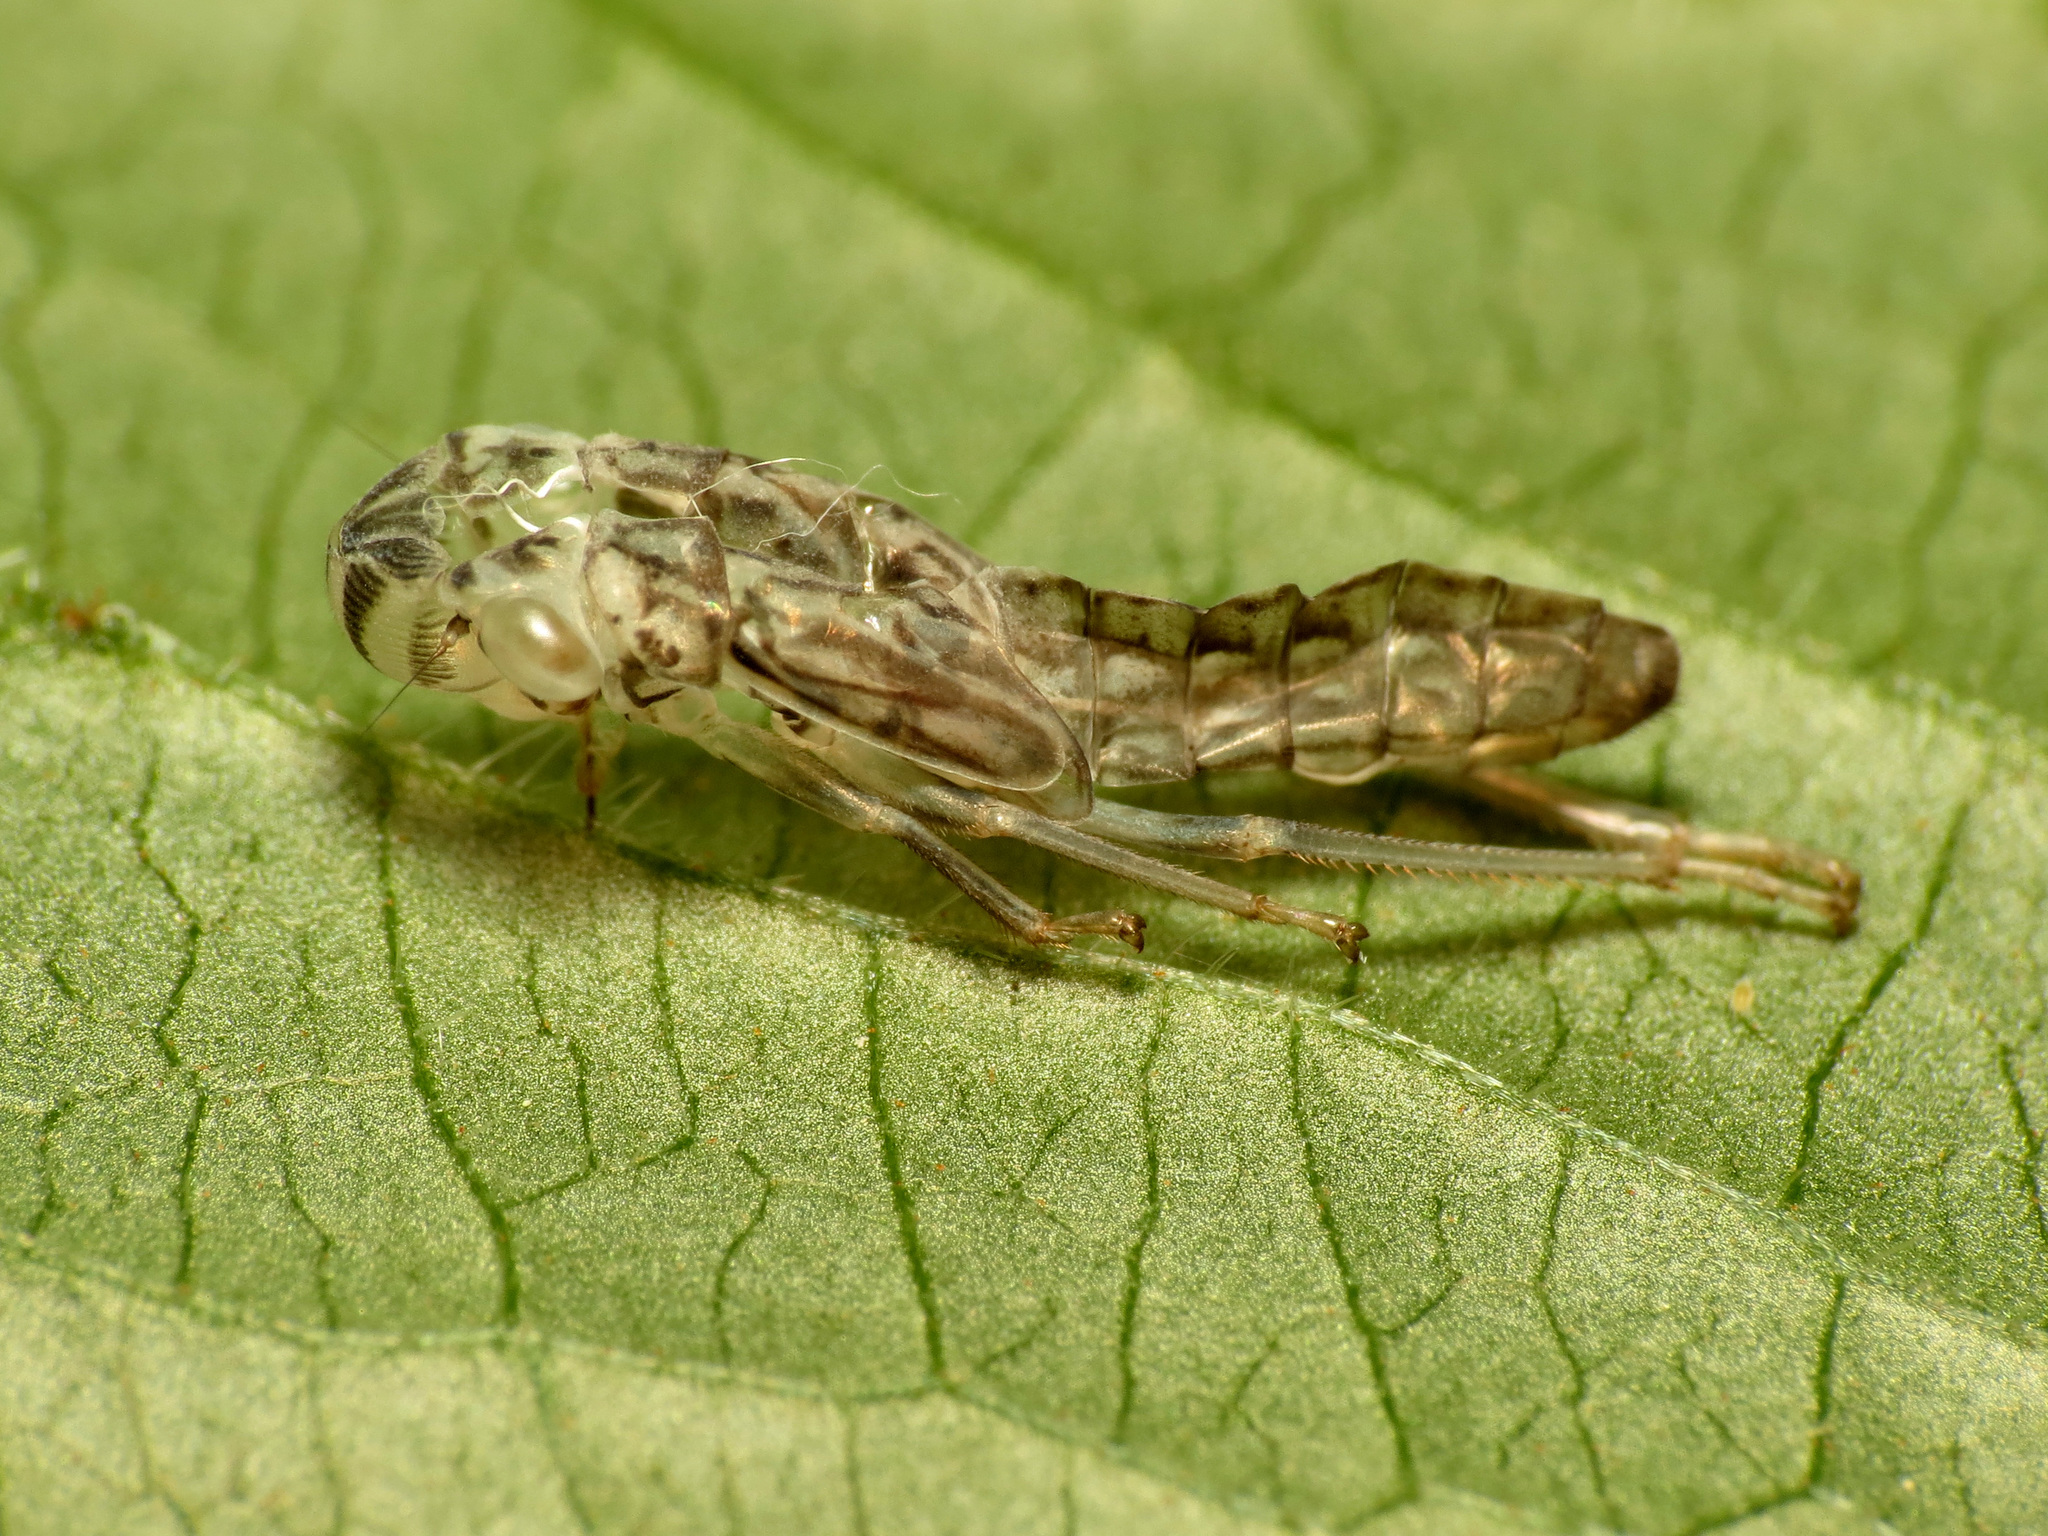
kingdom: Animalia
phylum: Arthropoda
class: Insecta
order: Hemiptera
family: Cicadellidae
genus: Oncometopia
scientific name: Oncometopia orbona
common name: Broad-headed sharpshooter
